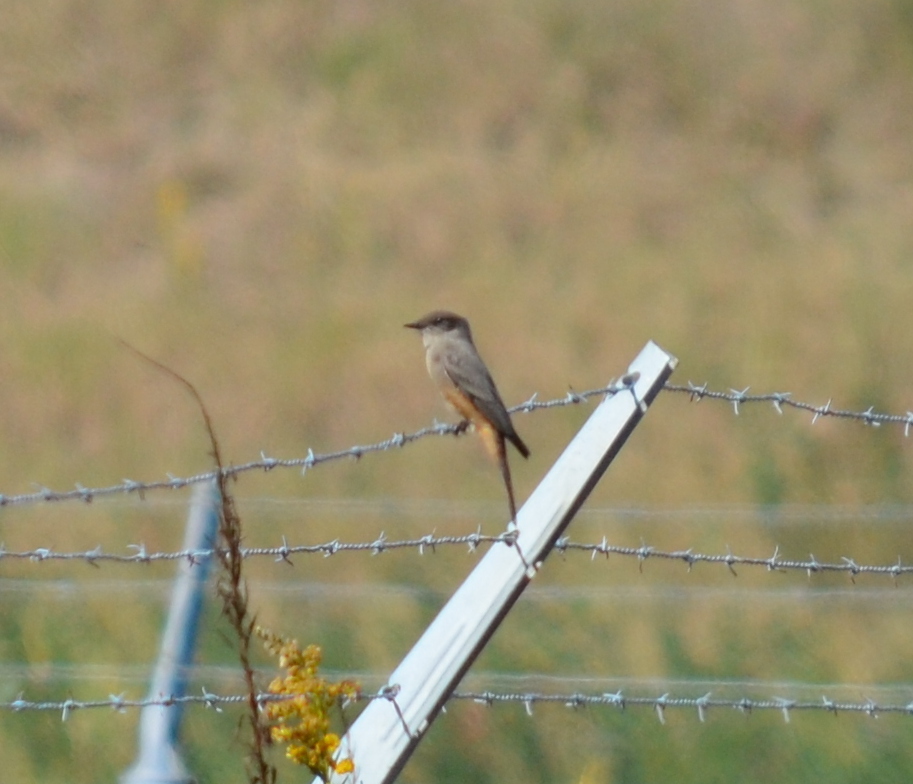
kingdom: Animalia
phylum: Chordata
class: Aves
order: Passeriformes
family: Tyrannidae
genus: Sayornis
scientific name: Sayornis saya
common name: Say's phoebe
